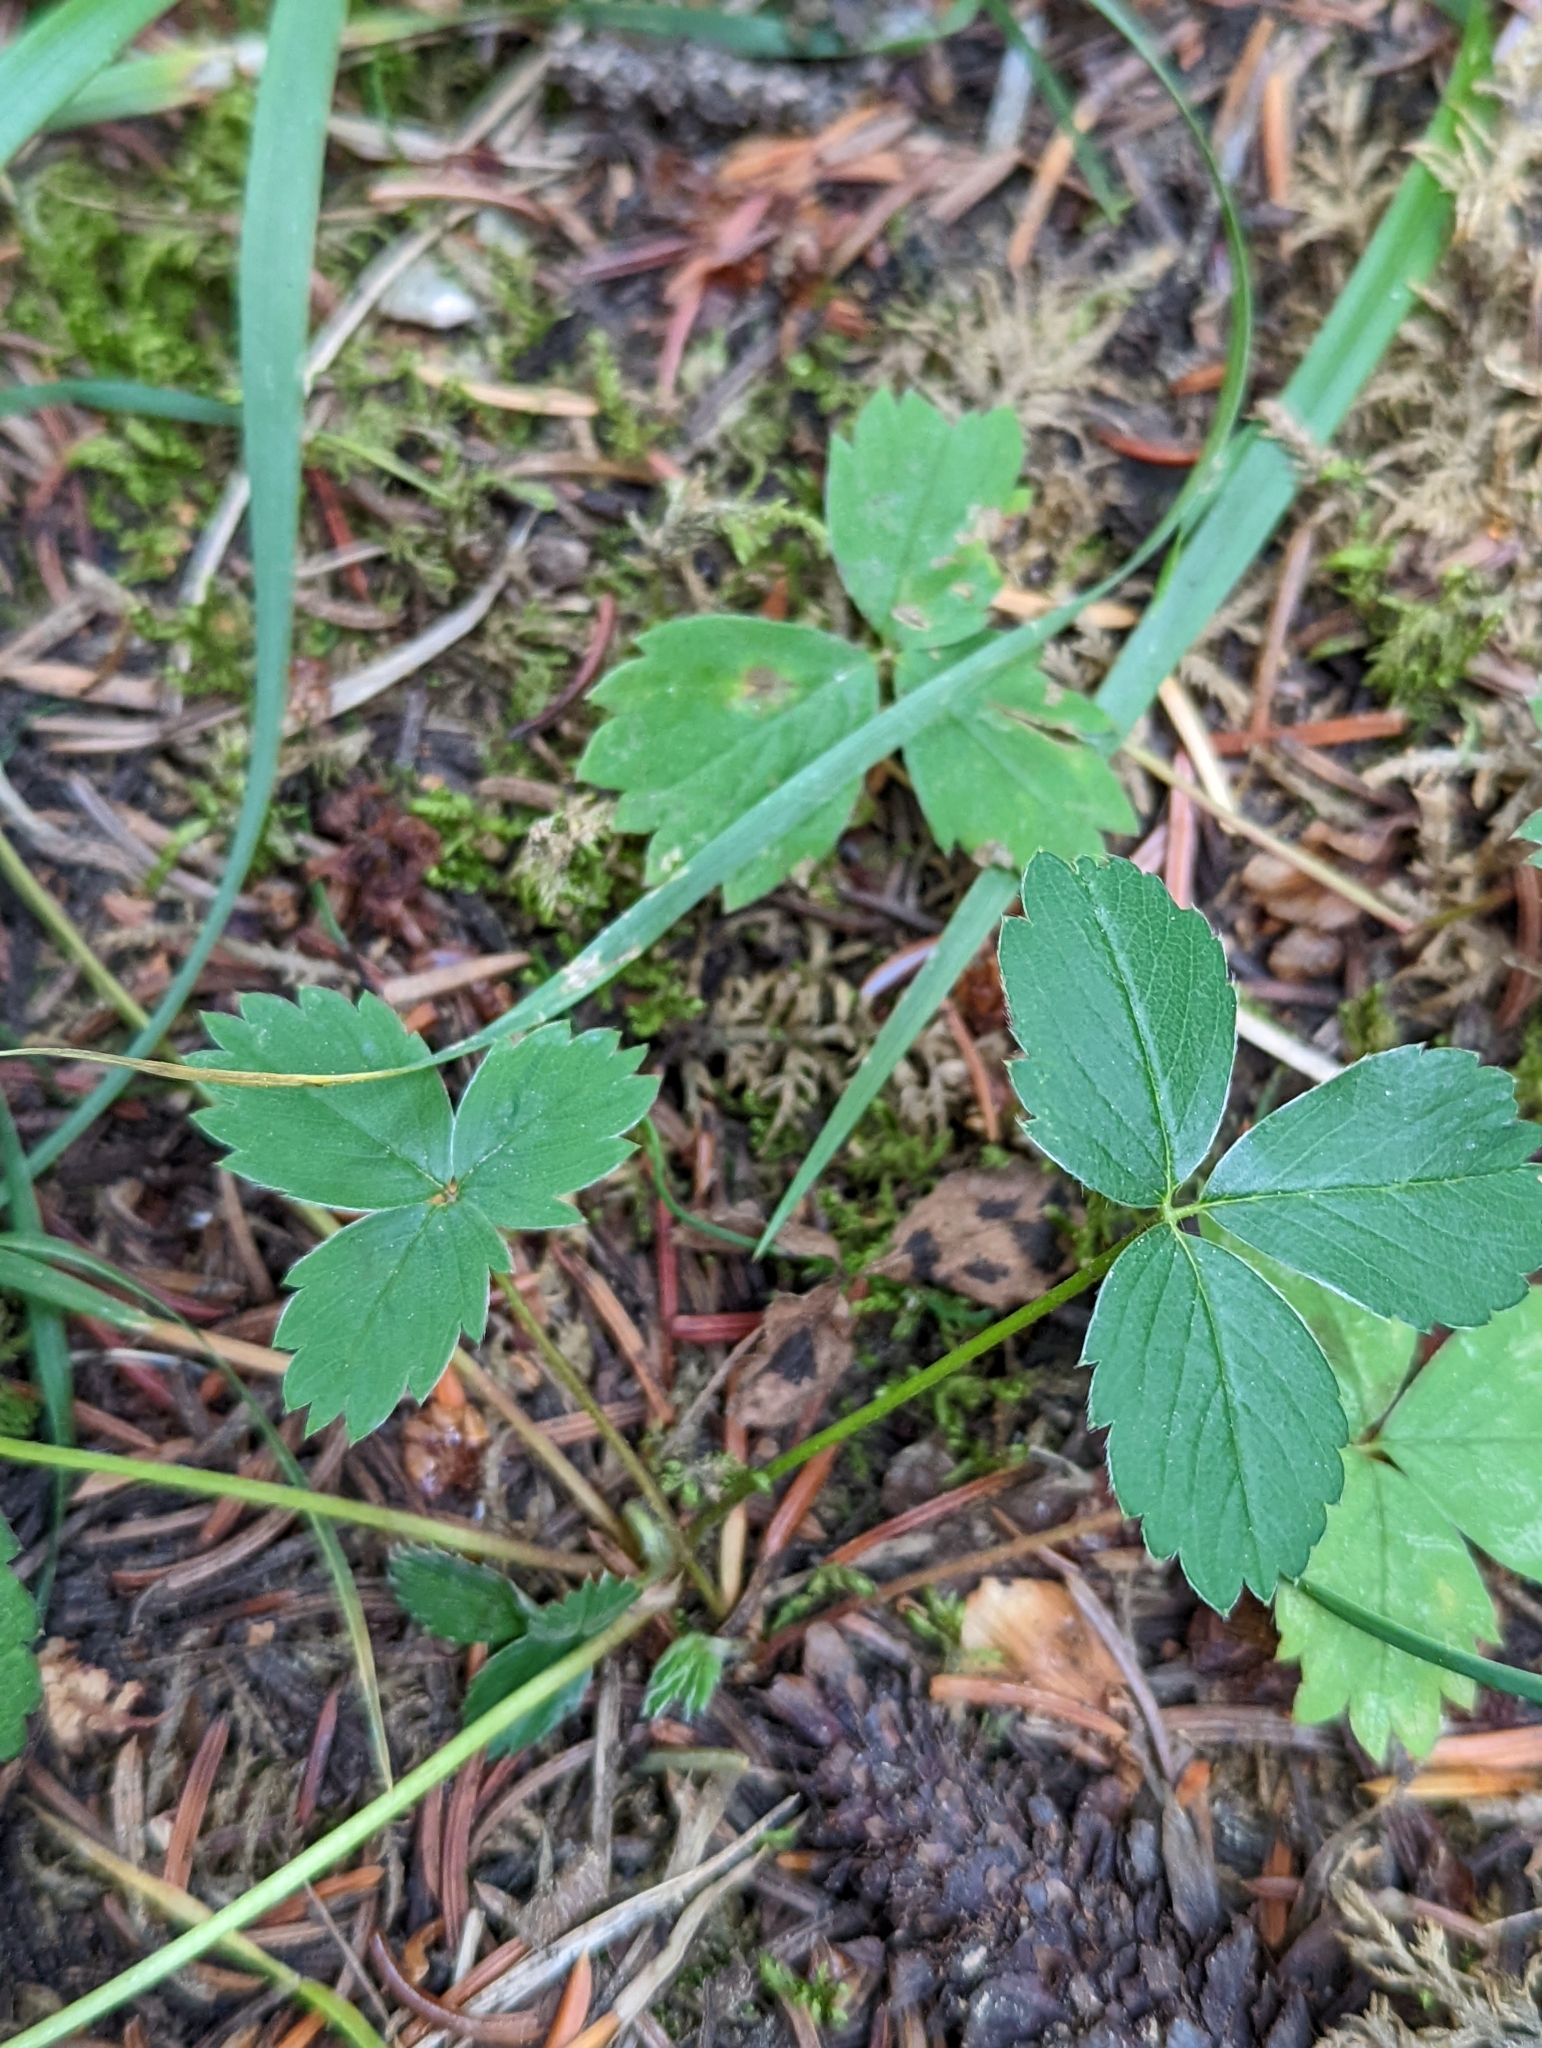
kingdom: Plantae
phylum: Tracheophyta
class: Magnoliopsida
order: Rosales
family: Rosaceae
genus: Fragaria
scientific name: Fragaria virginiana
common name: Thickleaved wild strawberry
